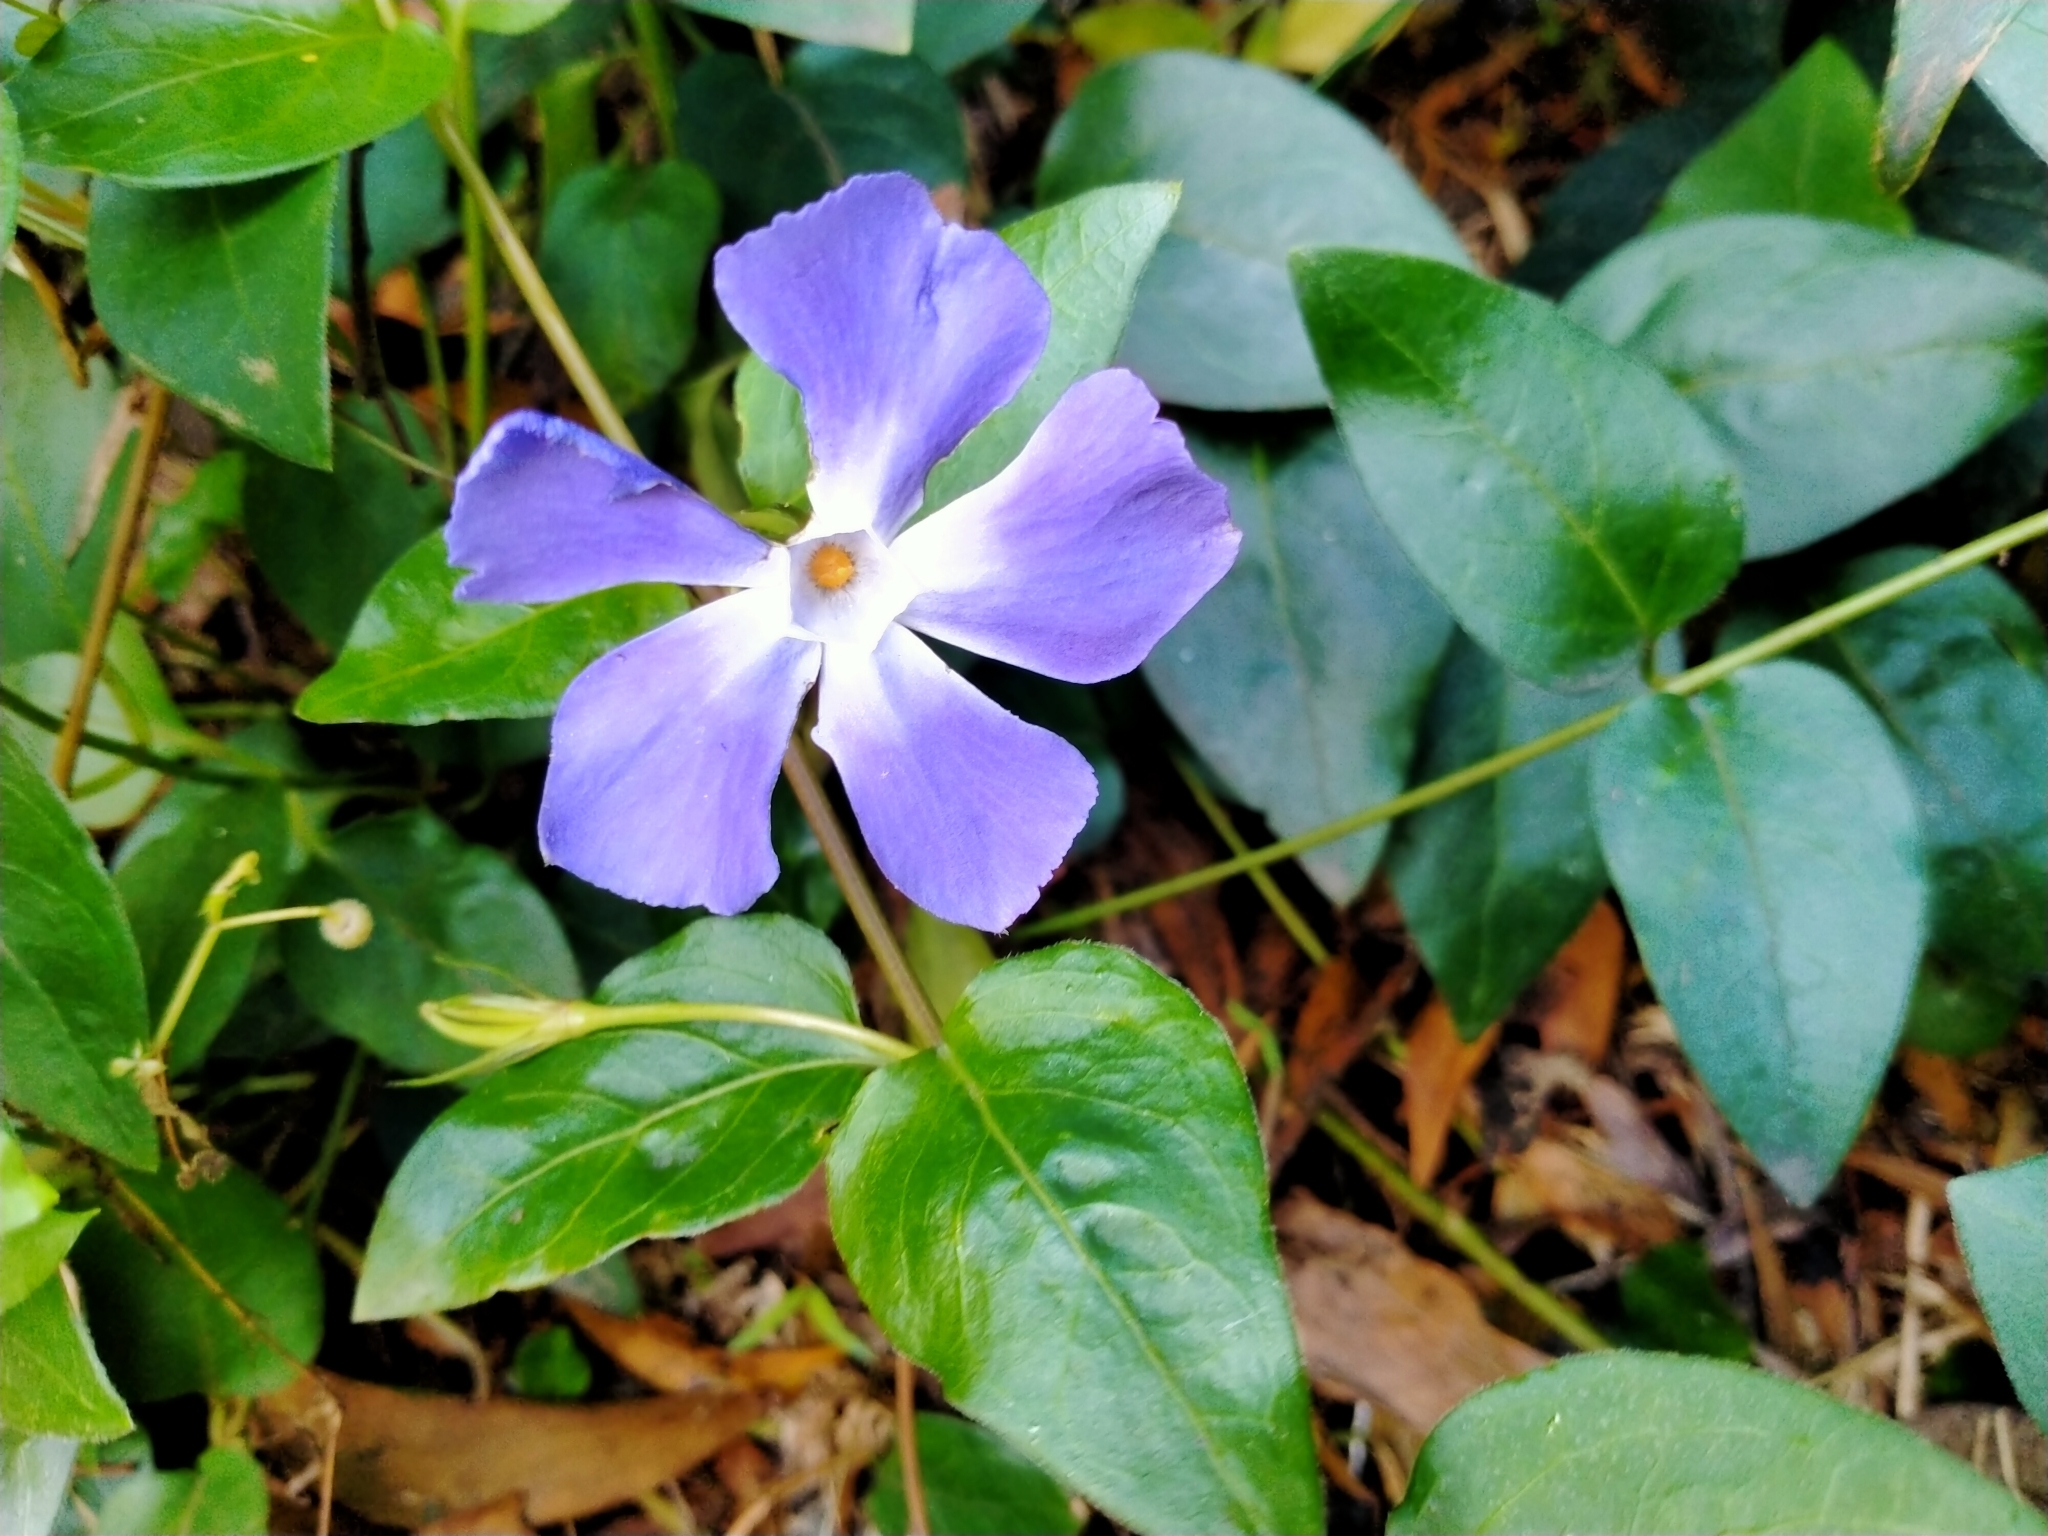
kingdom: Plantae
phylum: Tracheophyta
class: Magnoliopsida
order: Gentianales
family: Apocynaceae
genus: Vinca
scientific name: Vinca major
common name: Greater periwinkle
